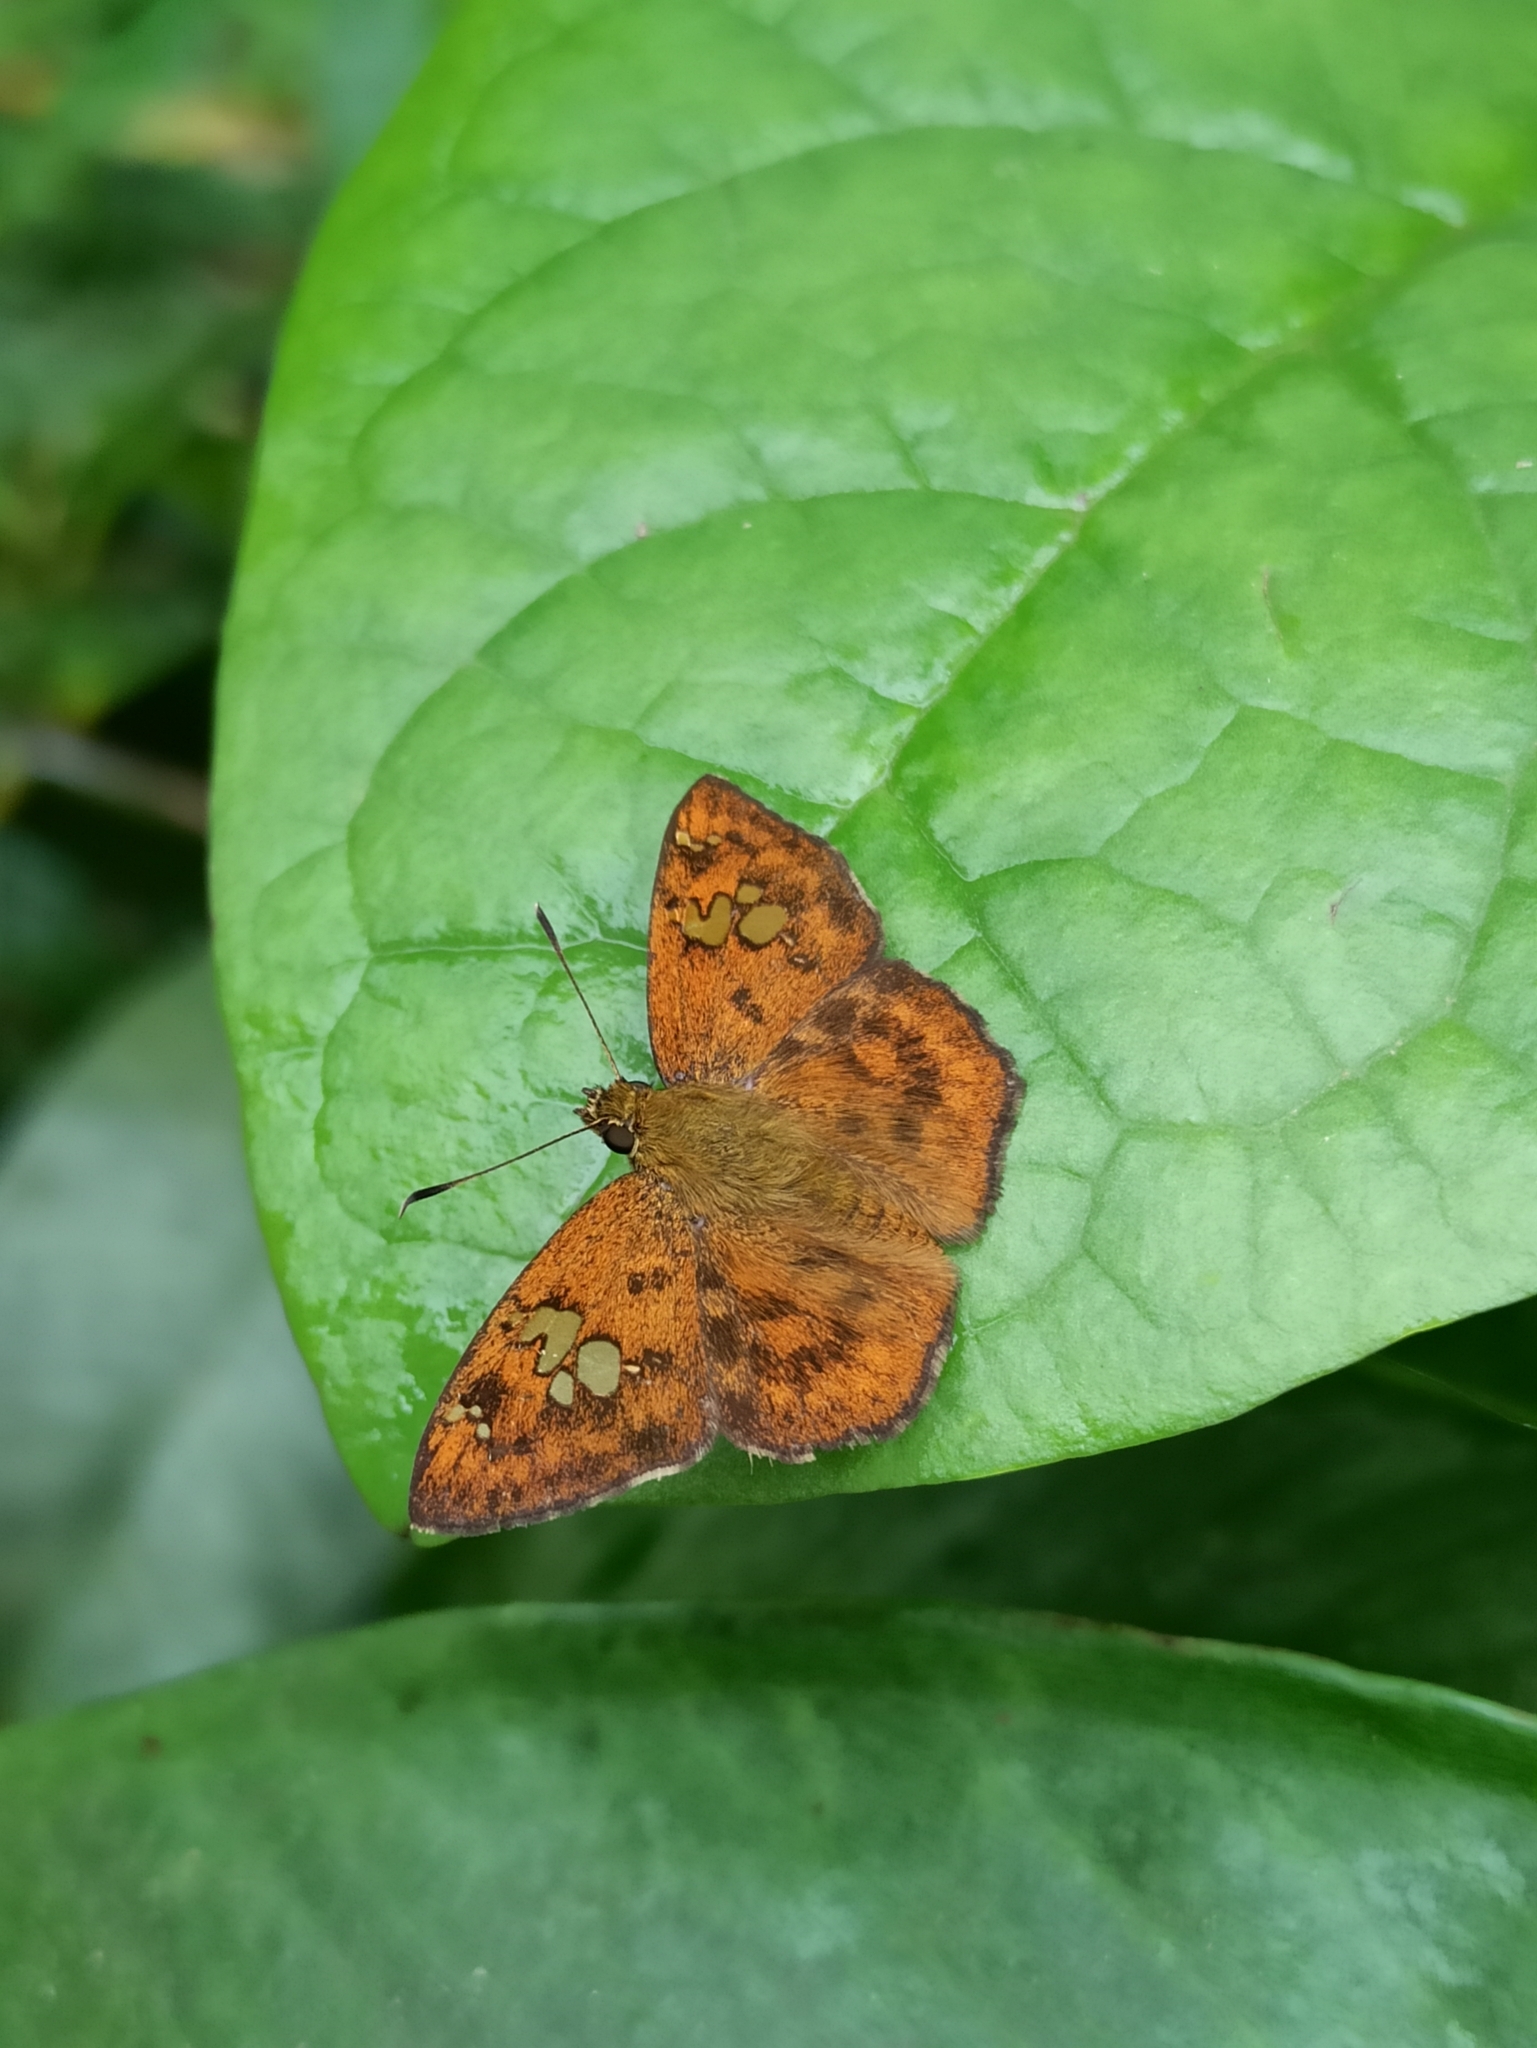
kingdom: Animalia
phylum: Arthropoda
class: Insecta
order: Lepidoptera
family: Hesperiidae
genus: Pseudocoladenia
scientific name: Pseudocoladenia dan
